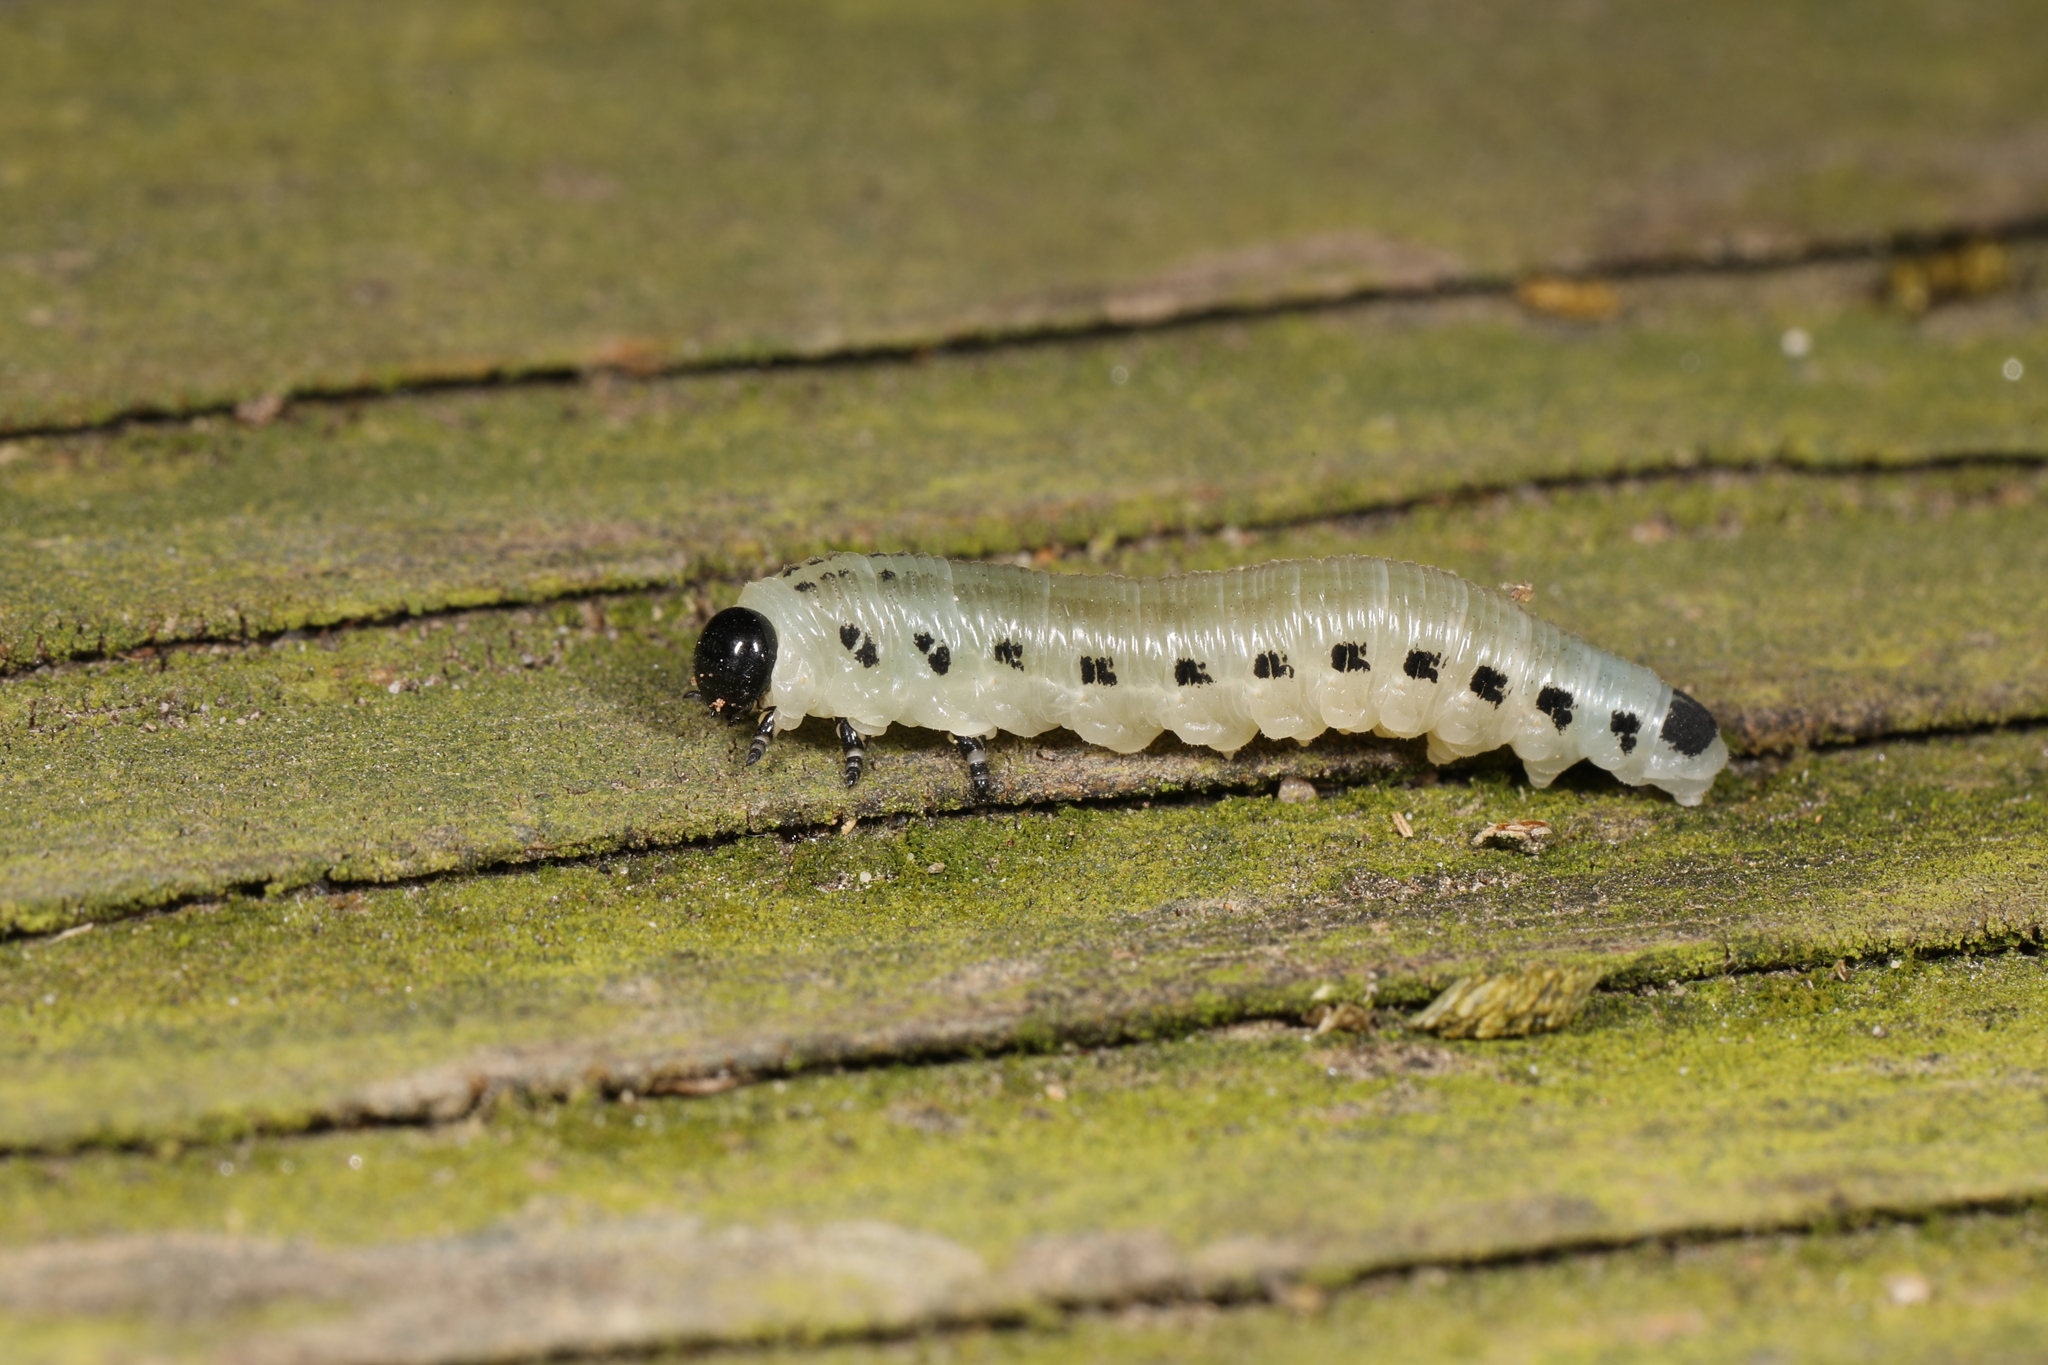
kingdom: Animalia
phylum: Arthropoda
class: Insecta
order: Hymenoptera
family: Diprionidae
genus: Neodiprion
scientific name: Neodiprion
